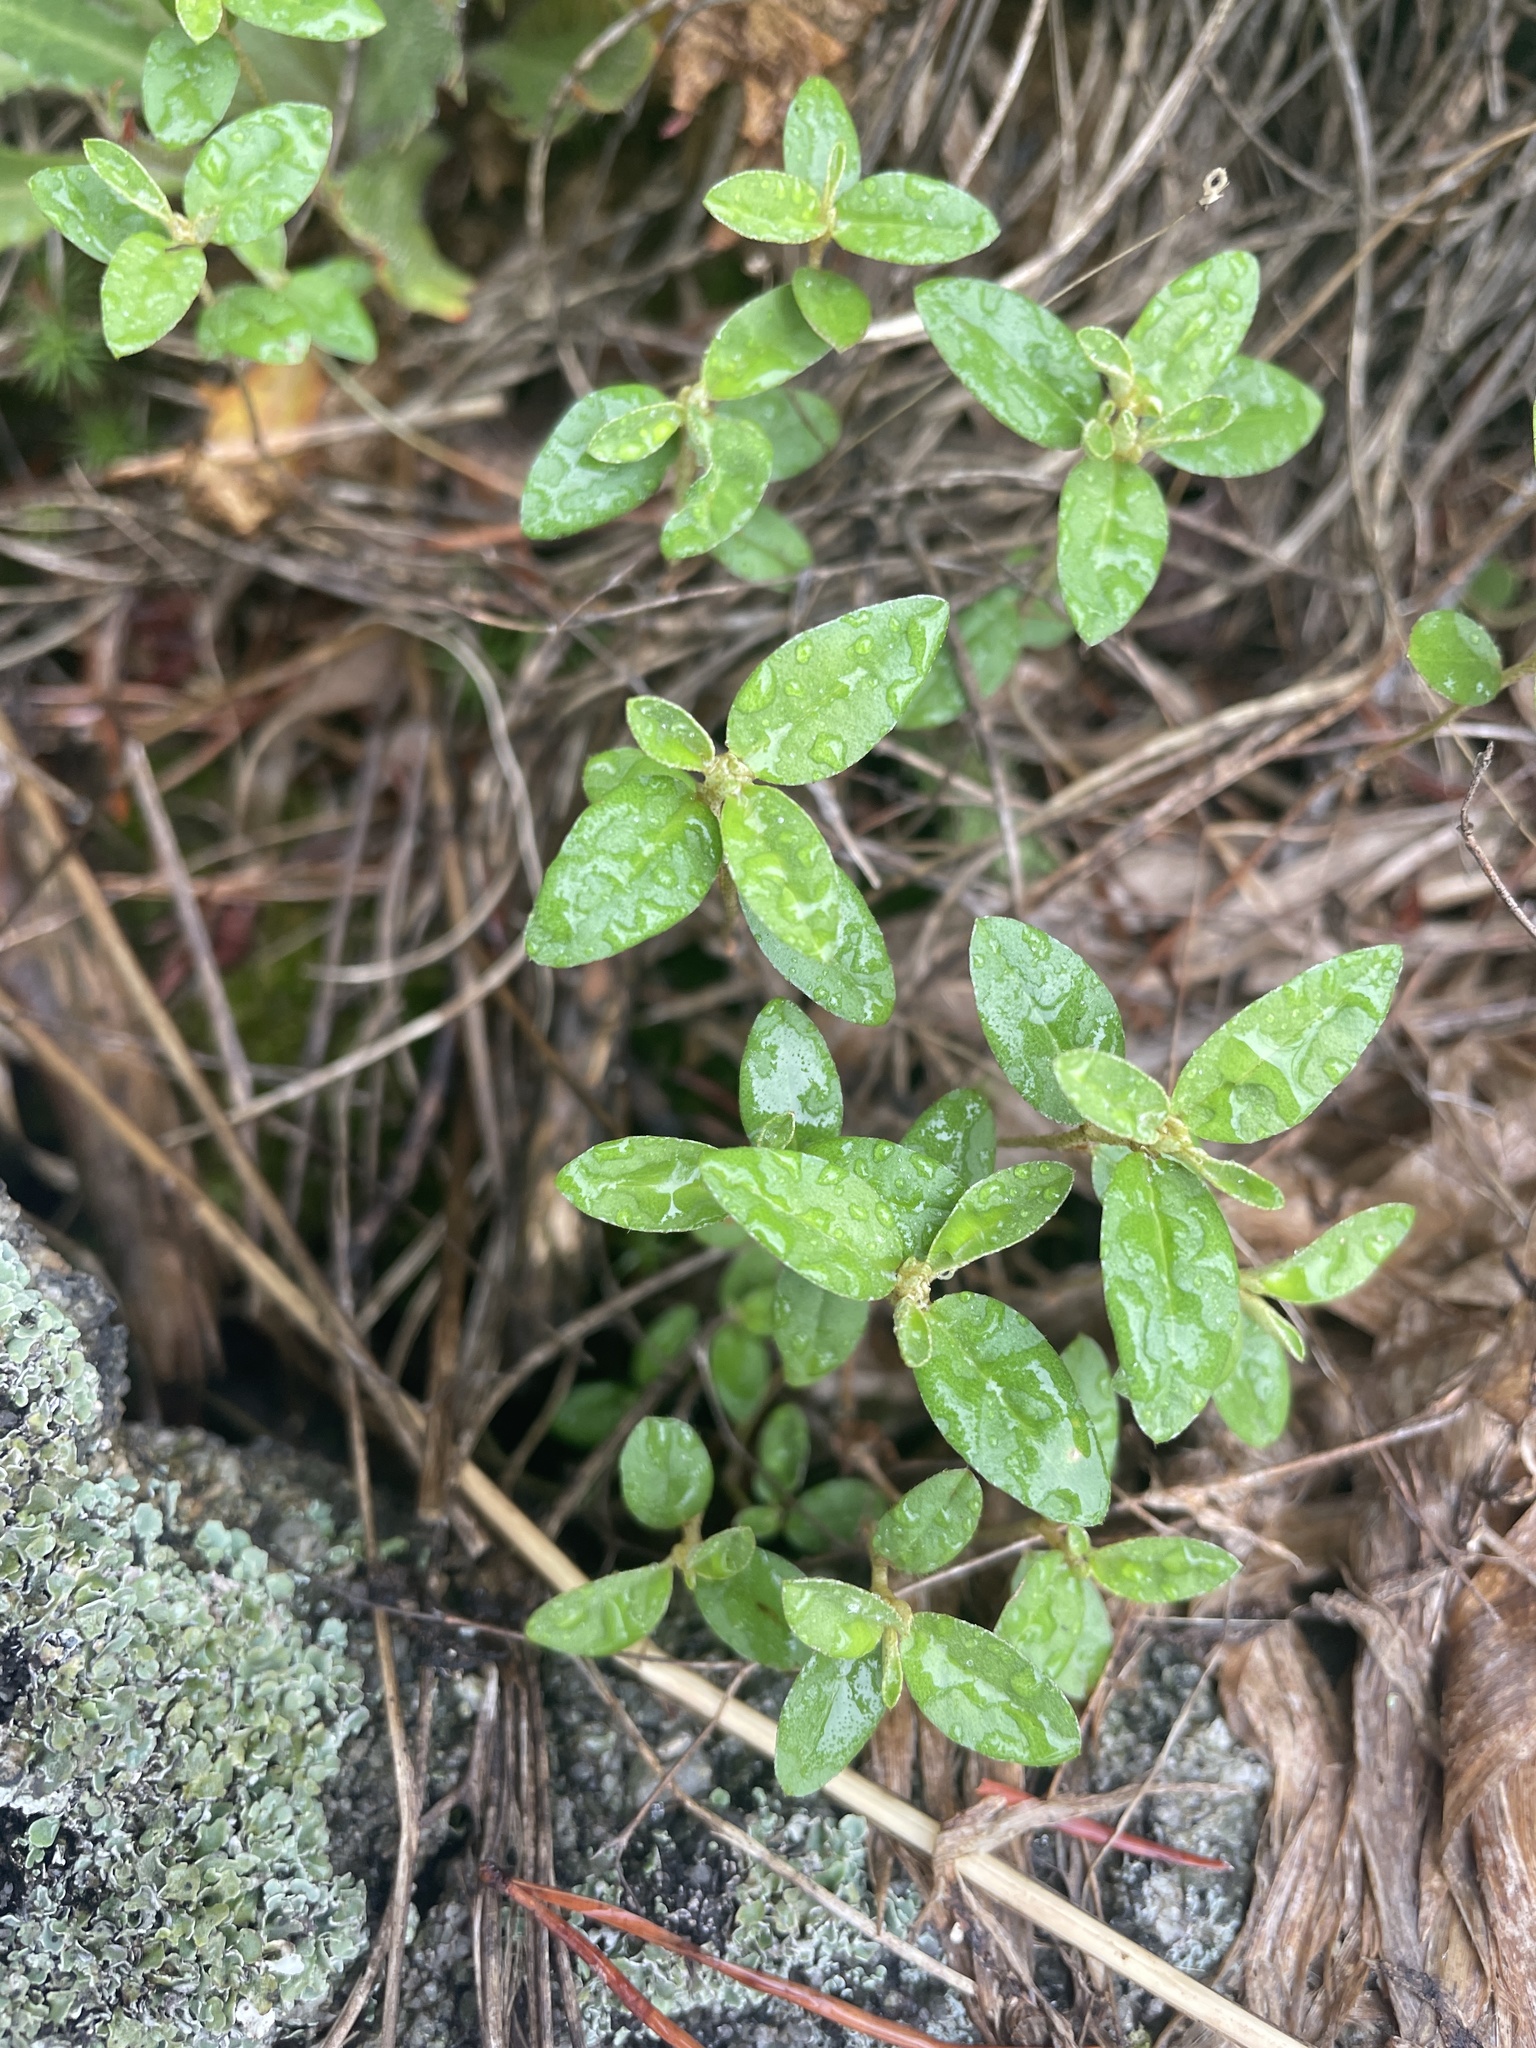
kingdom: Plantae
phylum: Tracheophyta
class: Magnoliopsida
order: Malpighiales
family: Euphorbiaceae
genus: Croton
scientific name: Croton michauxii
